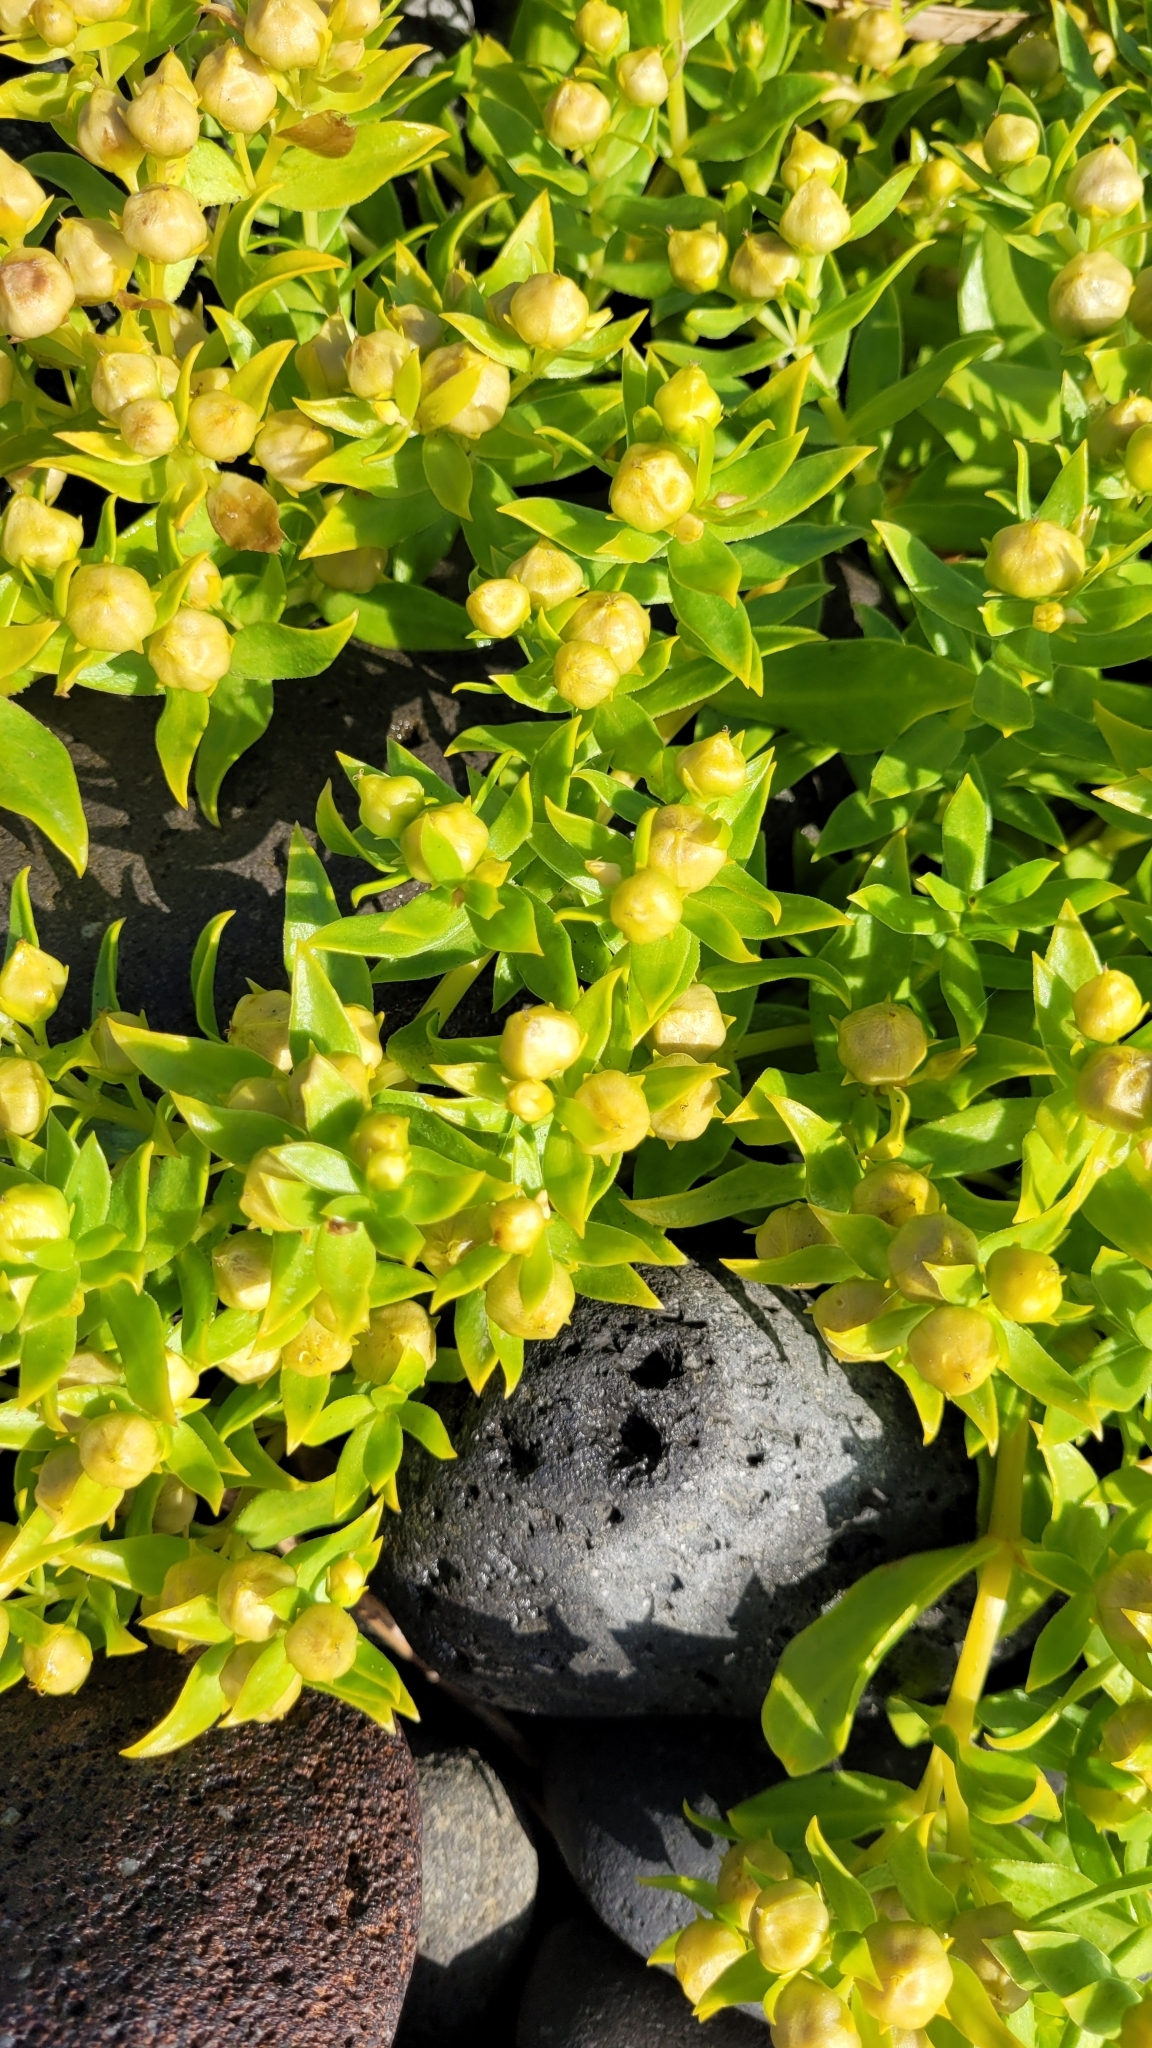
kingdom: Plantae
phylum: Tracheophyta
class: Magnoliopsida
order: Caryophyllales
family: Caryophyllaceae
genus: Honckenya
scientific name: Honckenya peploides
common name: Sea sandwort
